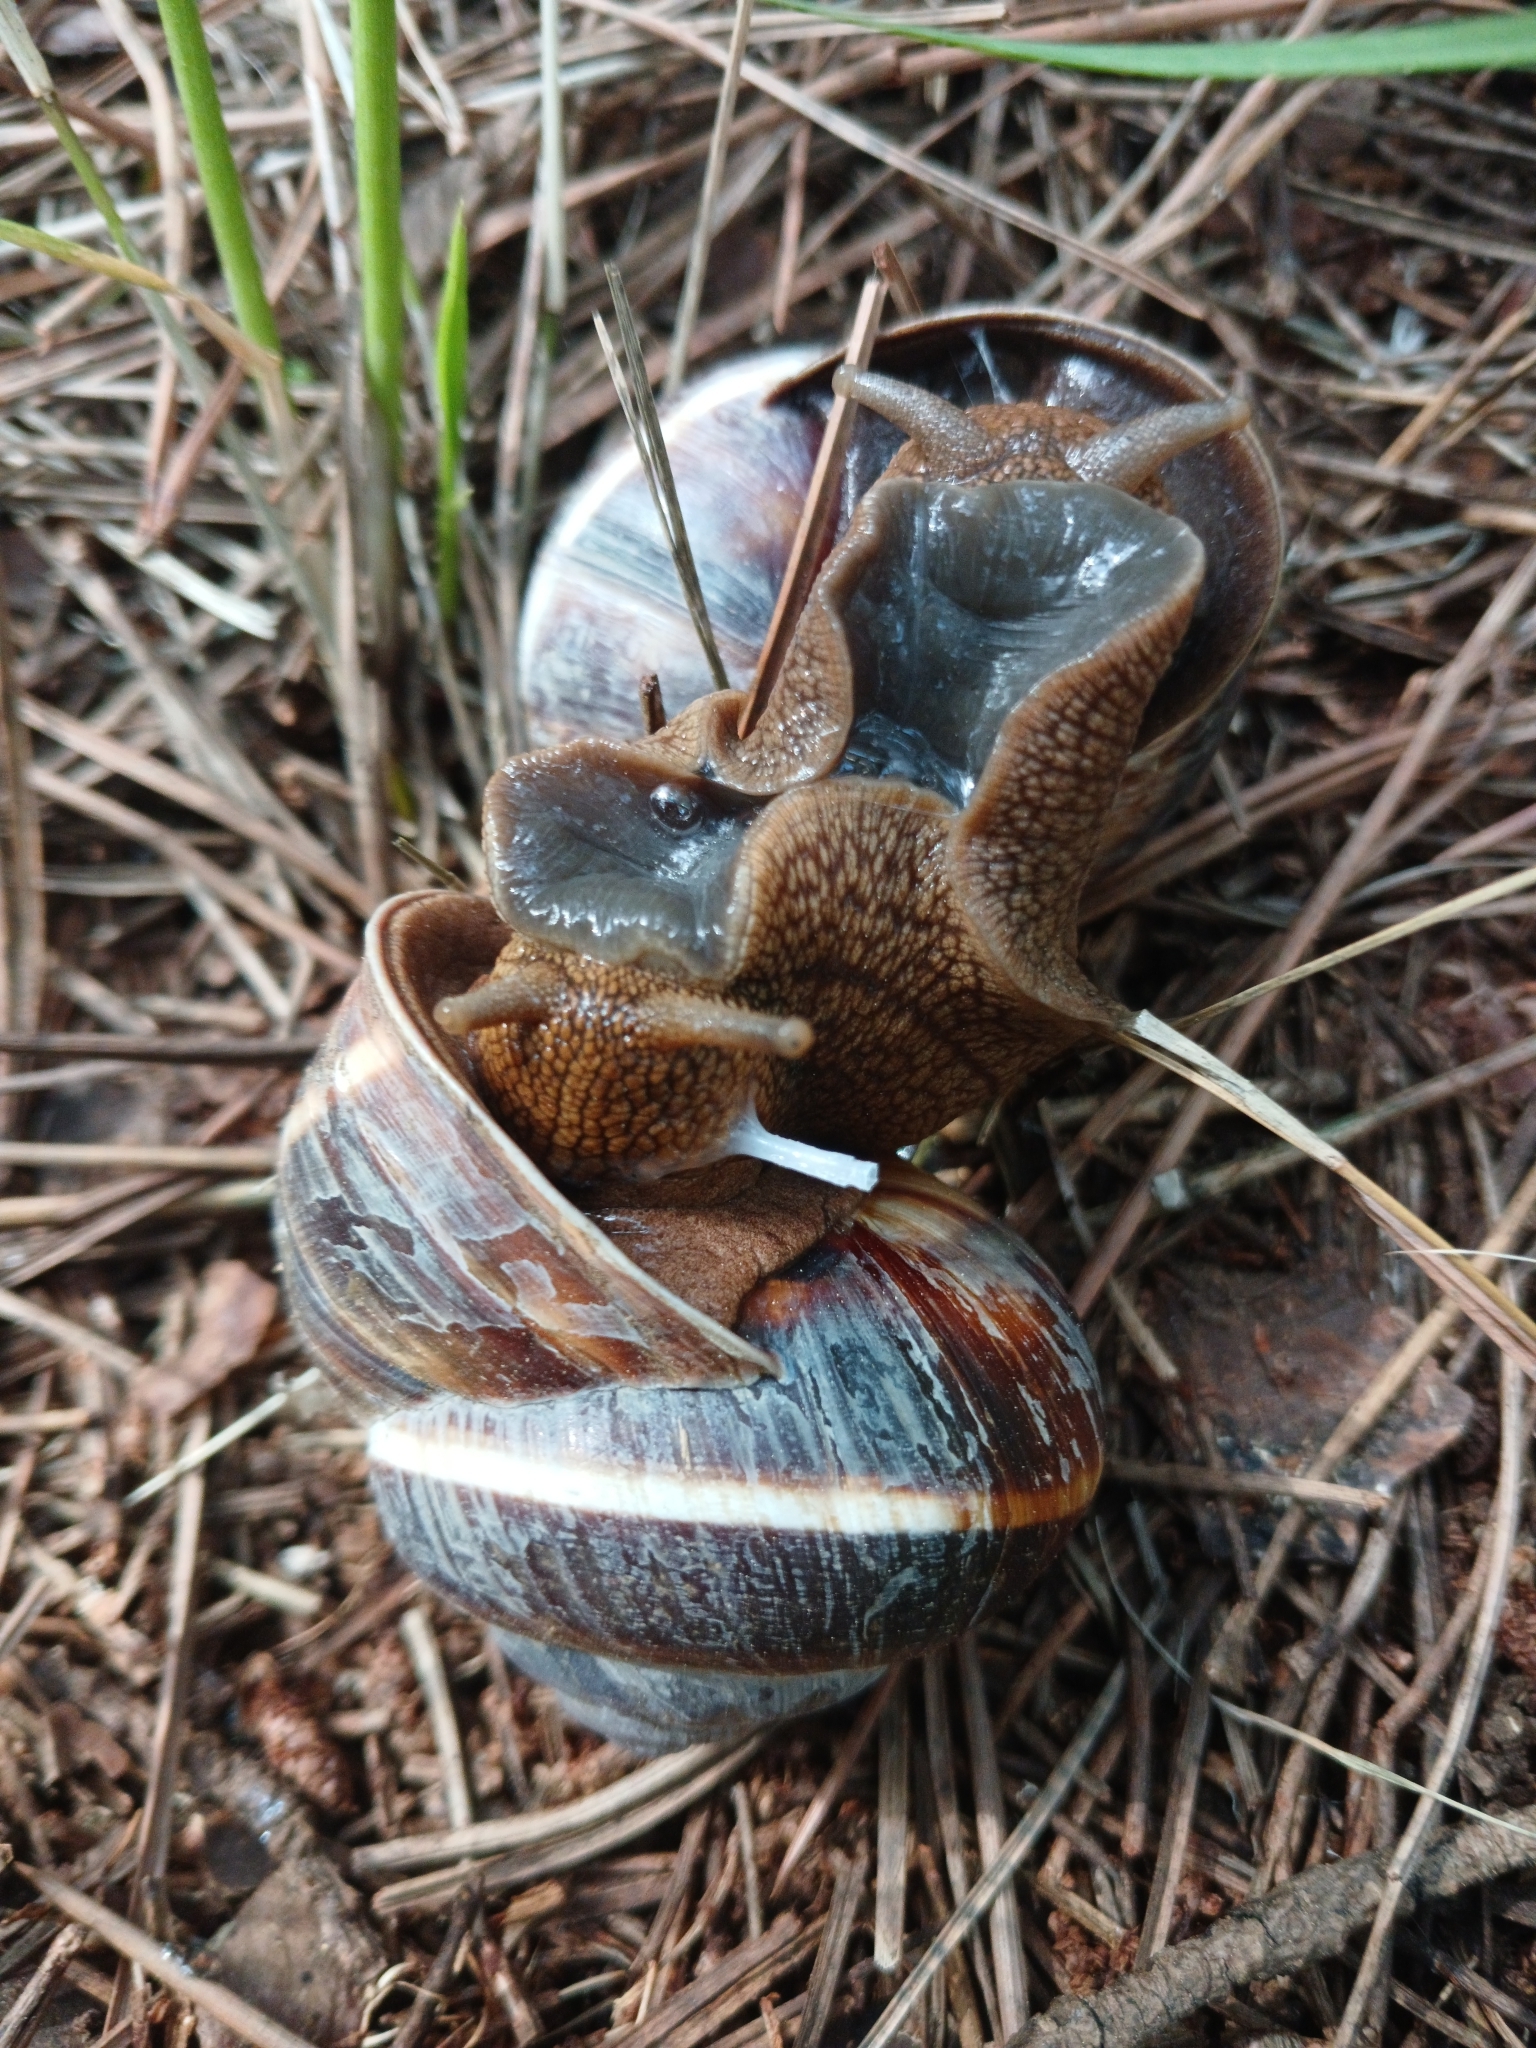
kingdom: Animalia
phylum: Mollusca
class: Gastropoda
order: Stylommatophora
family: Helicidae
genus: Helix
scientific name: Helix lucorum
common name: Turkish snail
